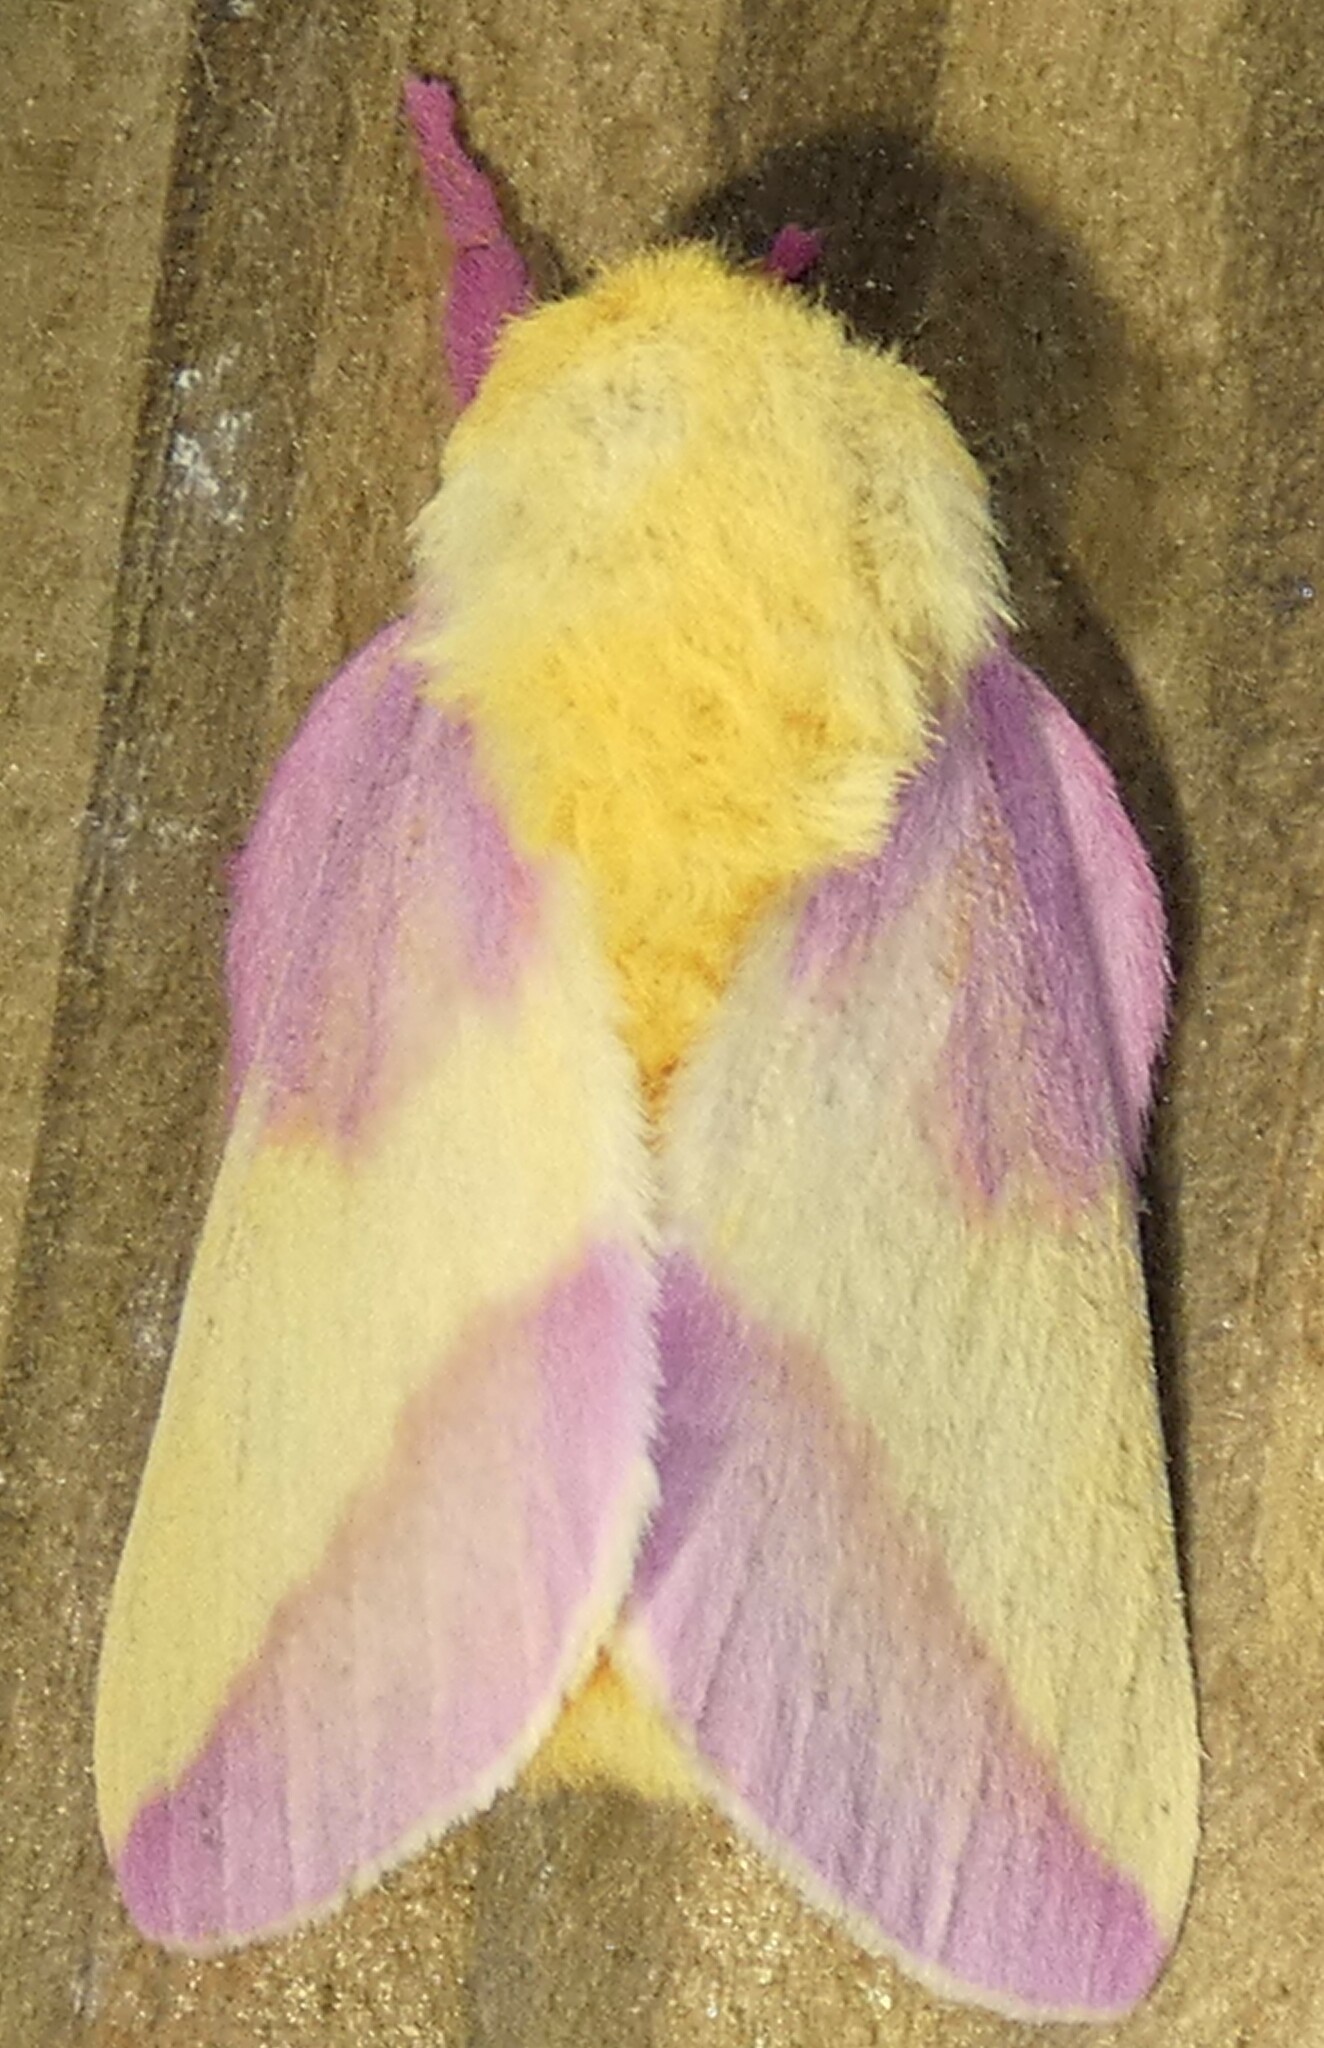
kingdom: Animalia
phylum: Arthropoda
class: Insecta
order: Lepidoptera
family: Saturniidae
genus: Dryocampa
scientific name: Dryocampa rubicunda
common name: Rosy maple moth
